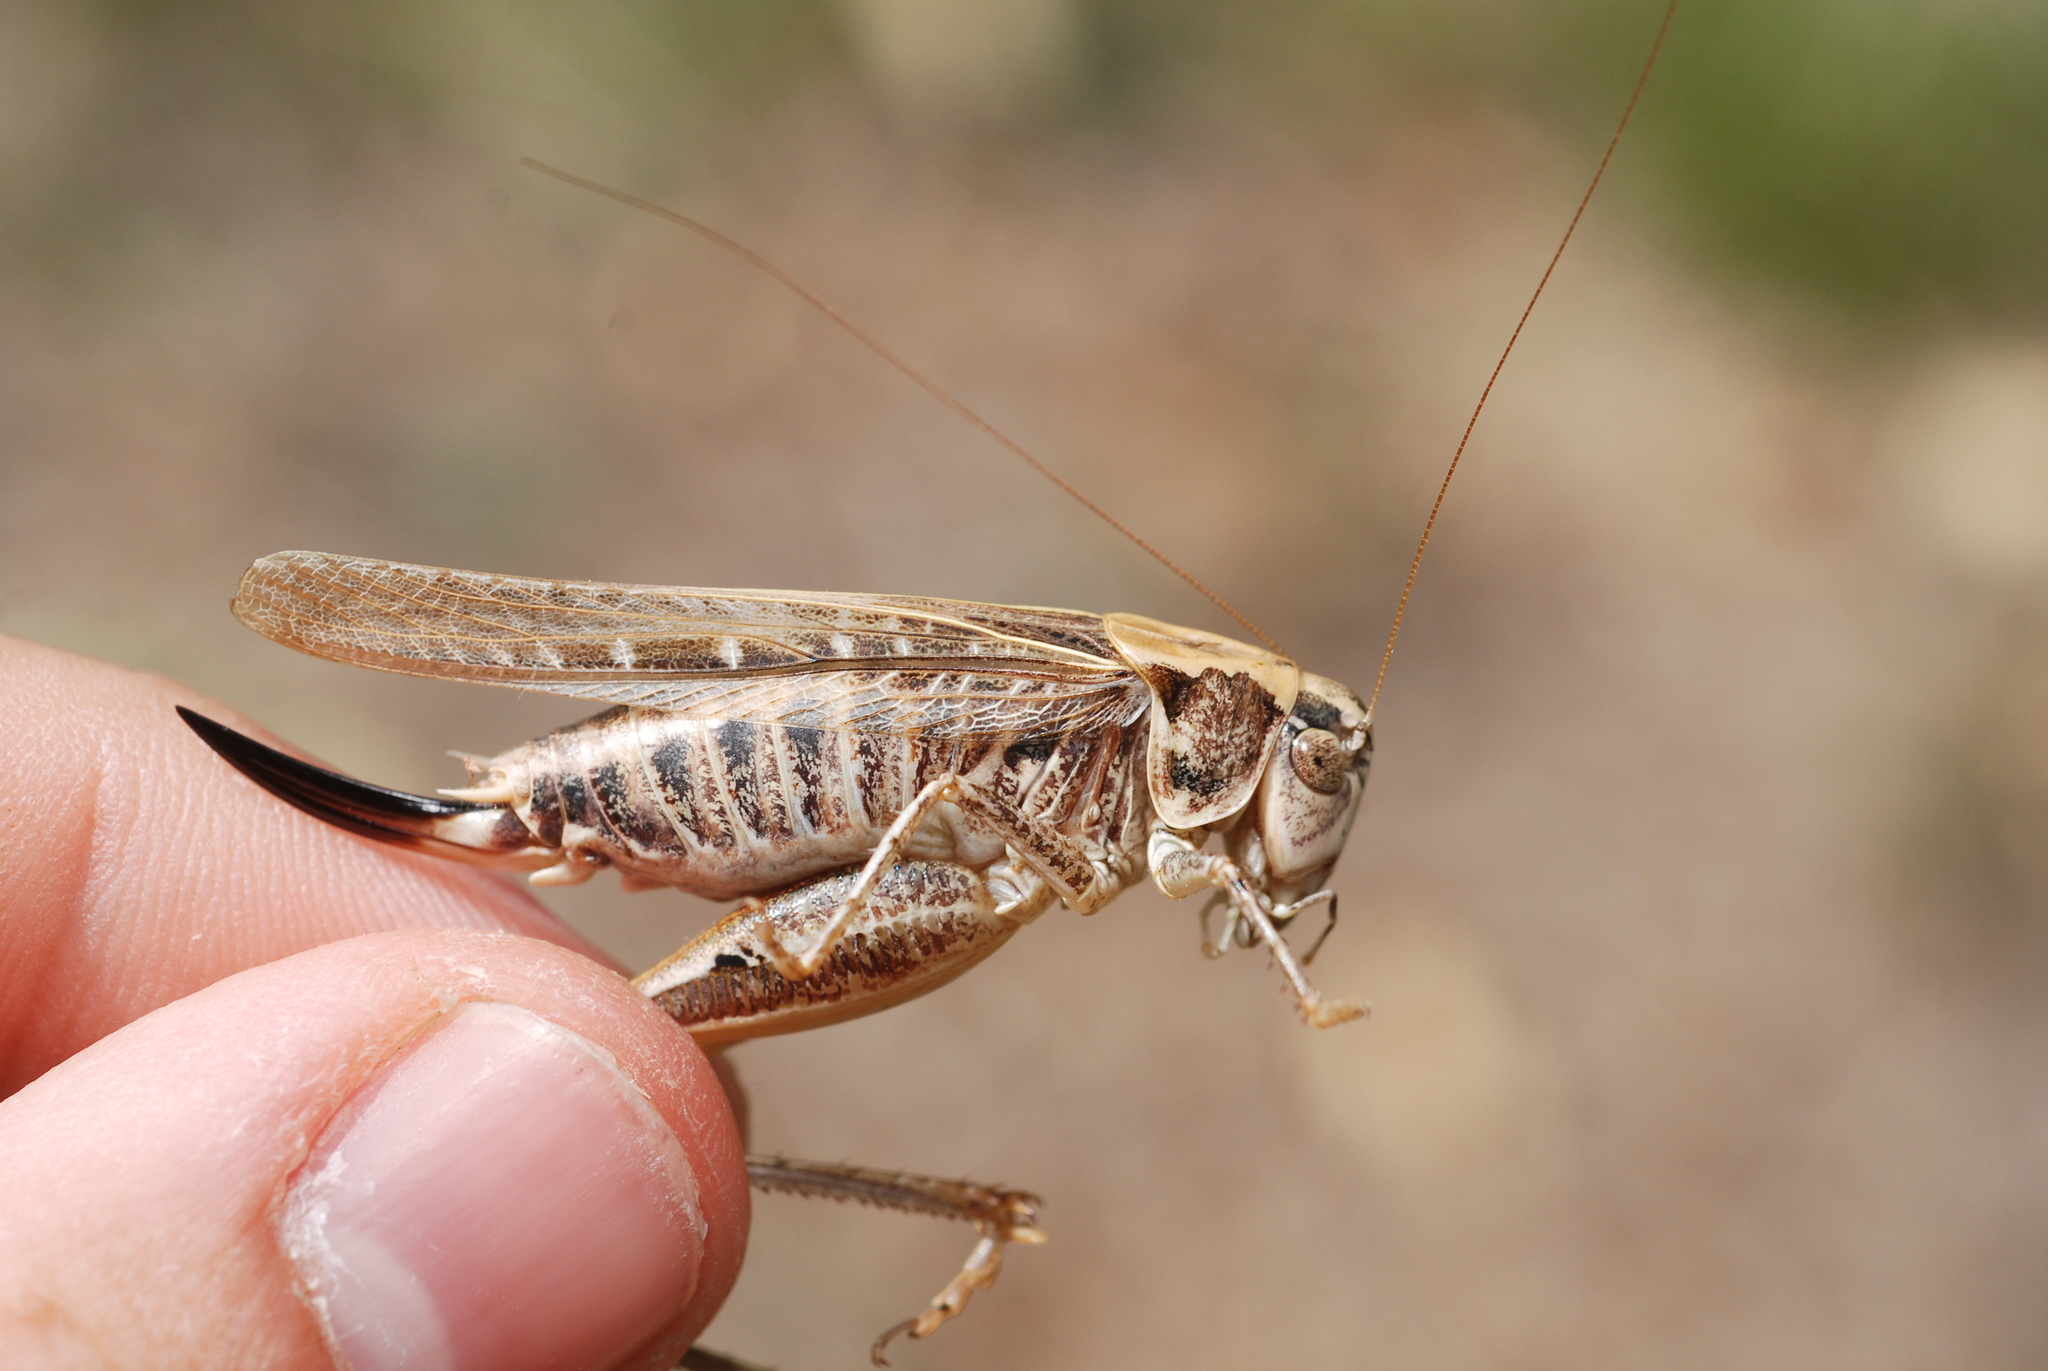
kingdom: Animalia
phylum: Arthropoda
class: Insecta
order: Orthoptera
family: Tettigoniidae
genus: Platycleis
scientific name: Platycleis affinis
